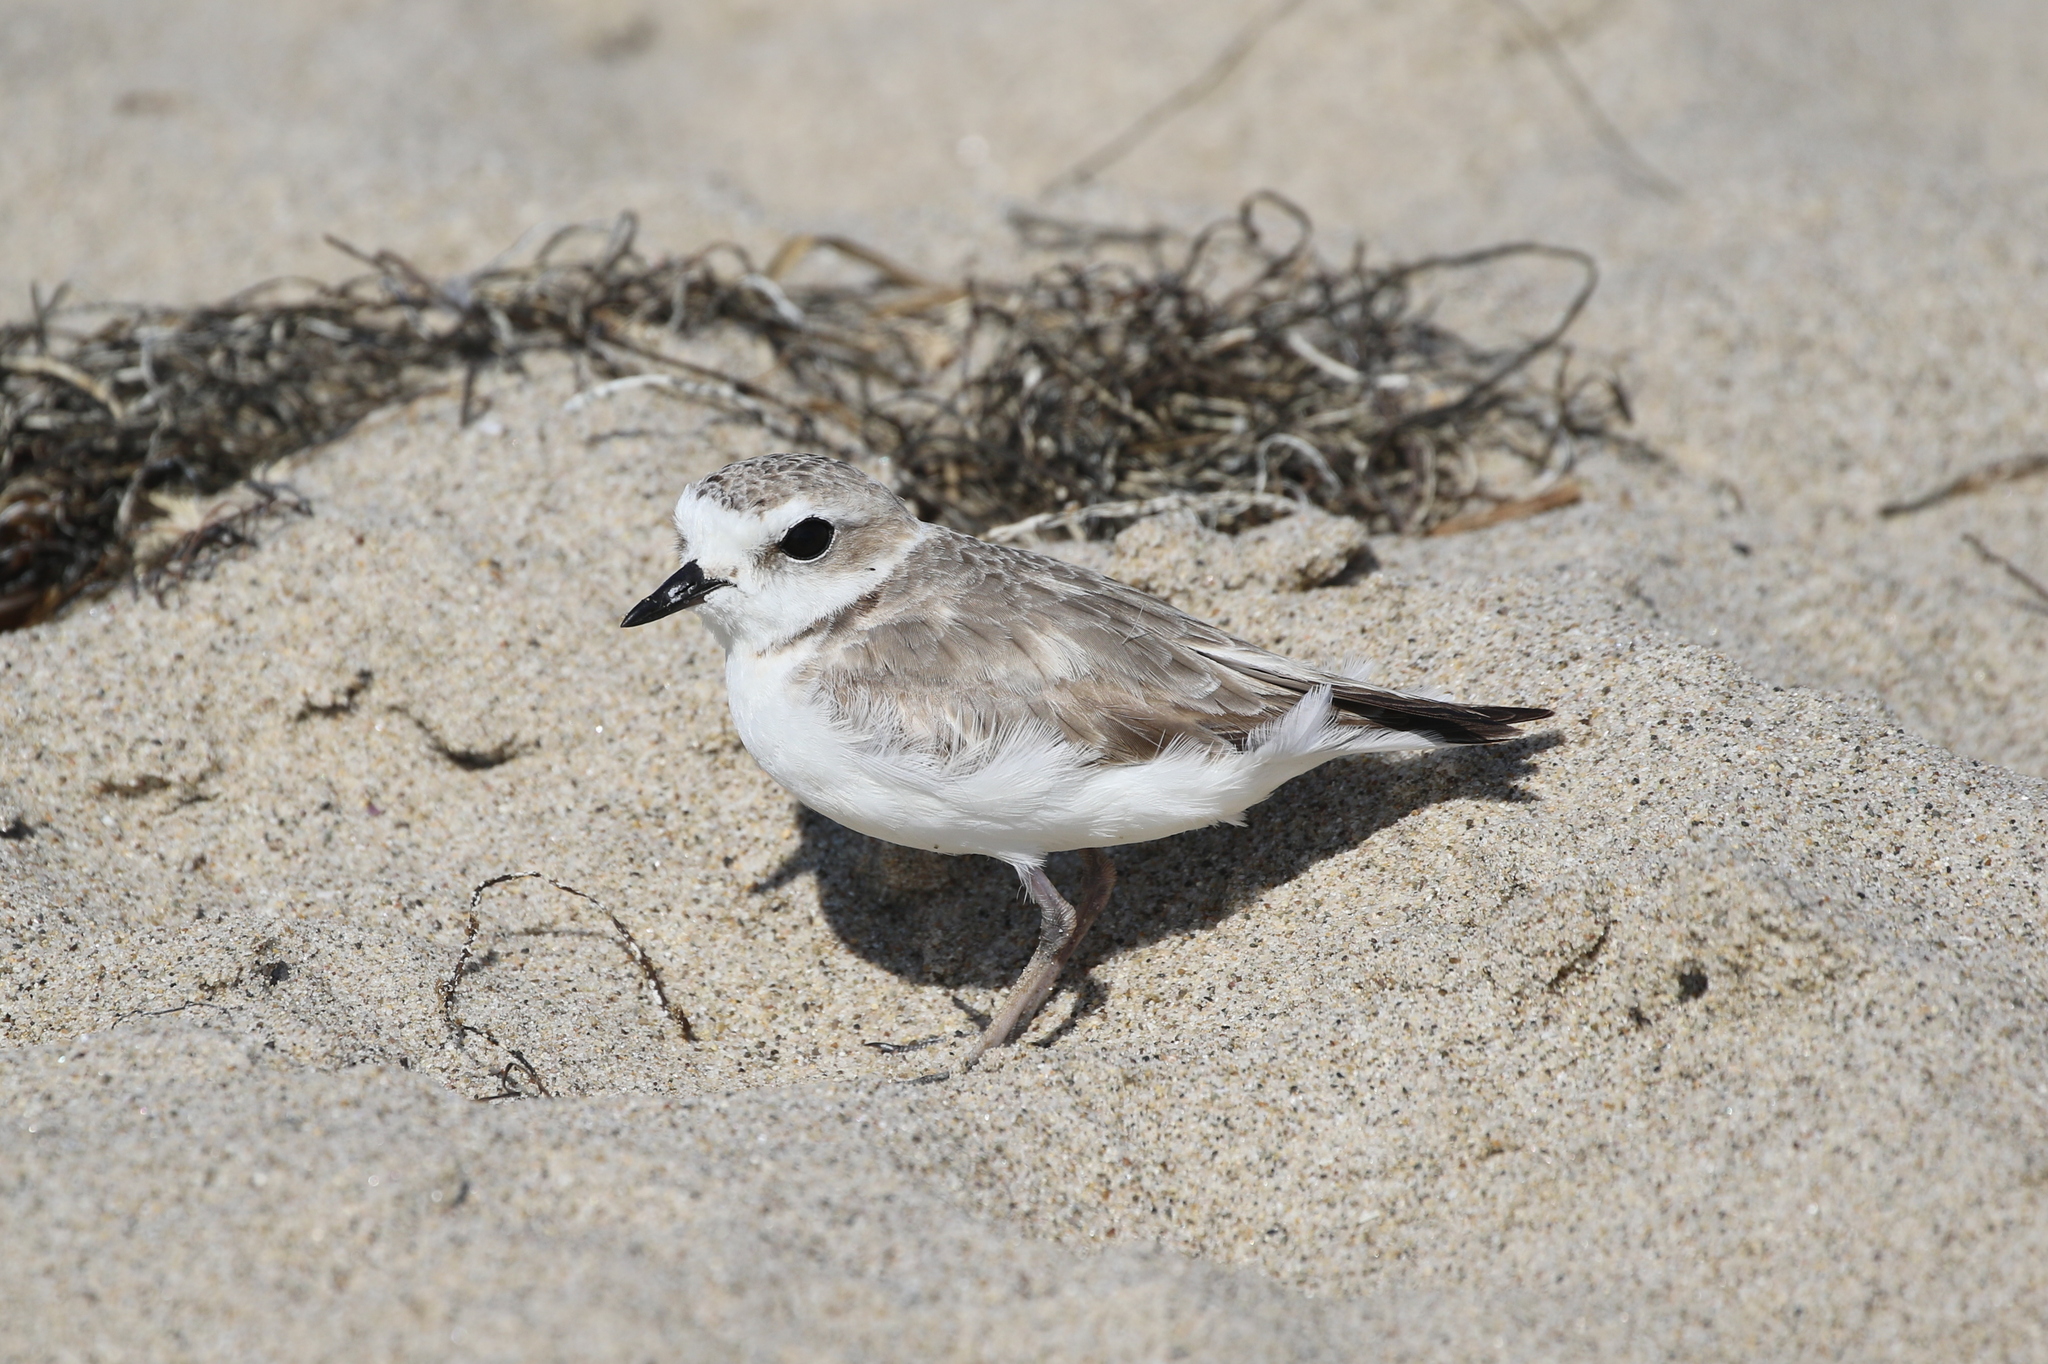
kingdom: Animalia
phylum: Chordata
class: Aves
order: Charadriiformes
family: Charadriidae
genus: Anarhynchus
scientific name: Anarhynchus
